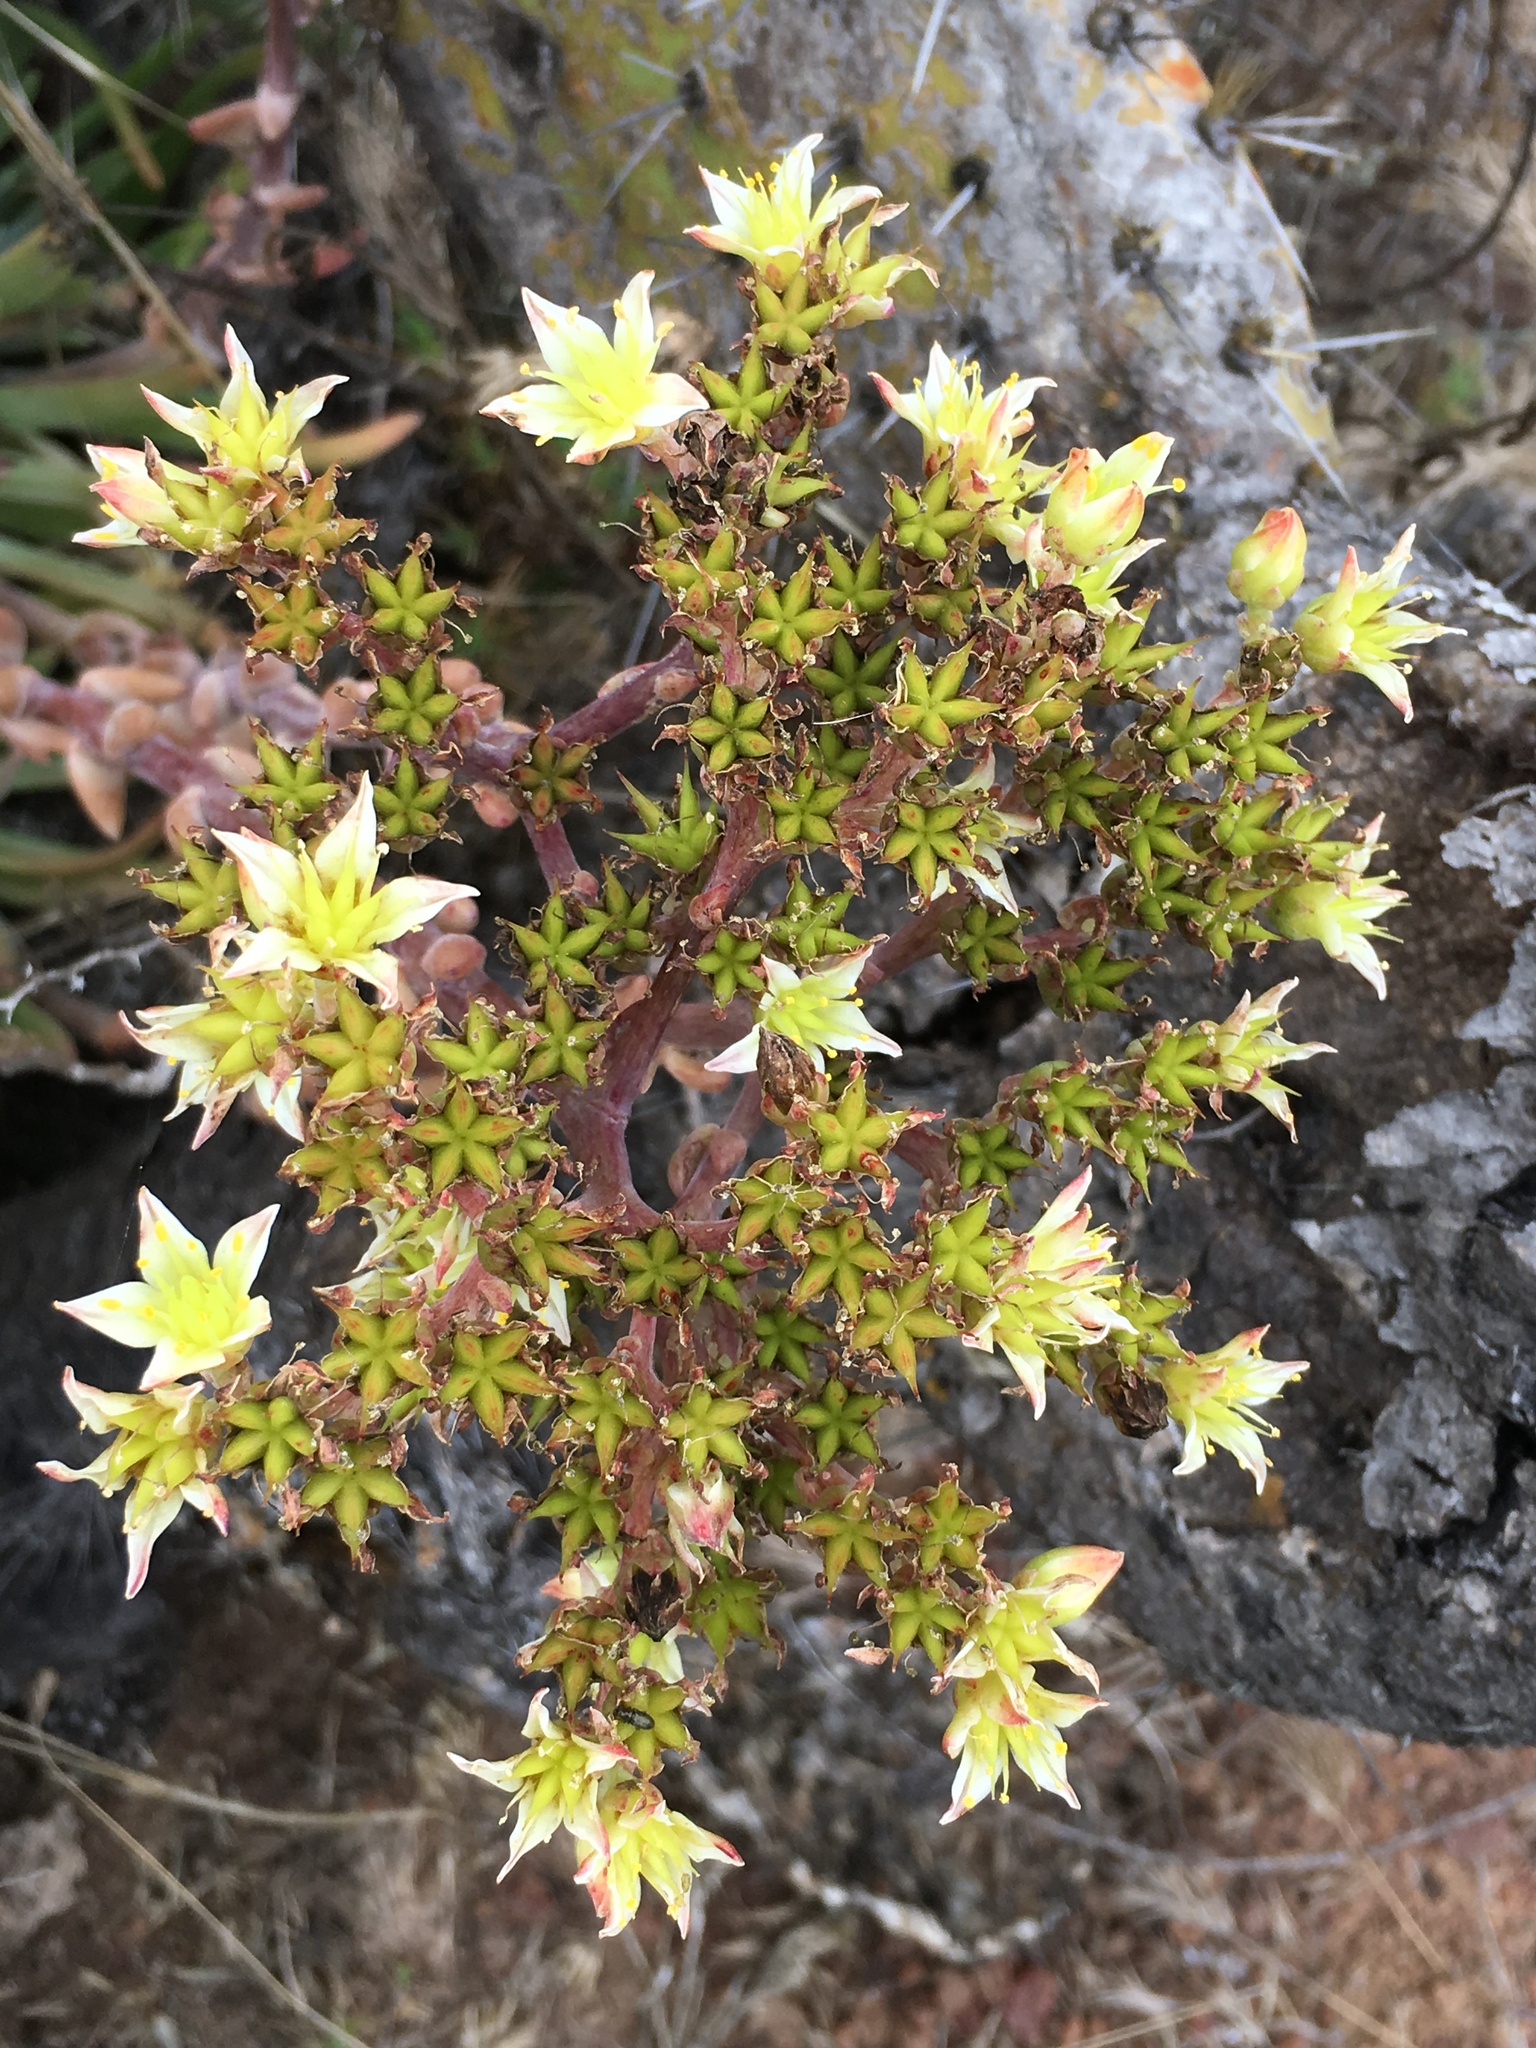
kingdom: Plantae
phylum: Tracheophyta
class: Magnoliopsida
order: Saxifragales
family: Crassulaceae
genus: Dudleya
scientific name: Dudleya virens
